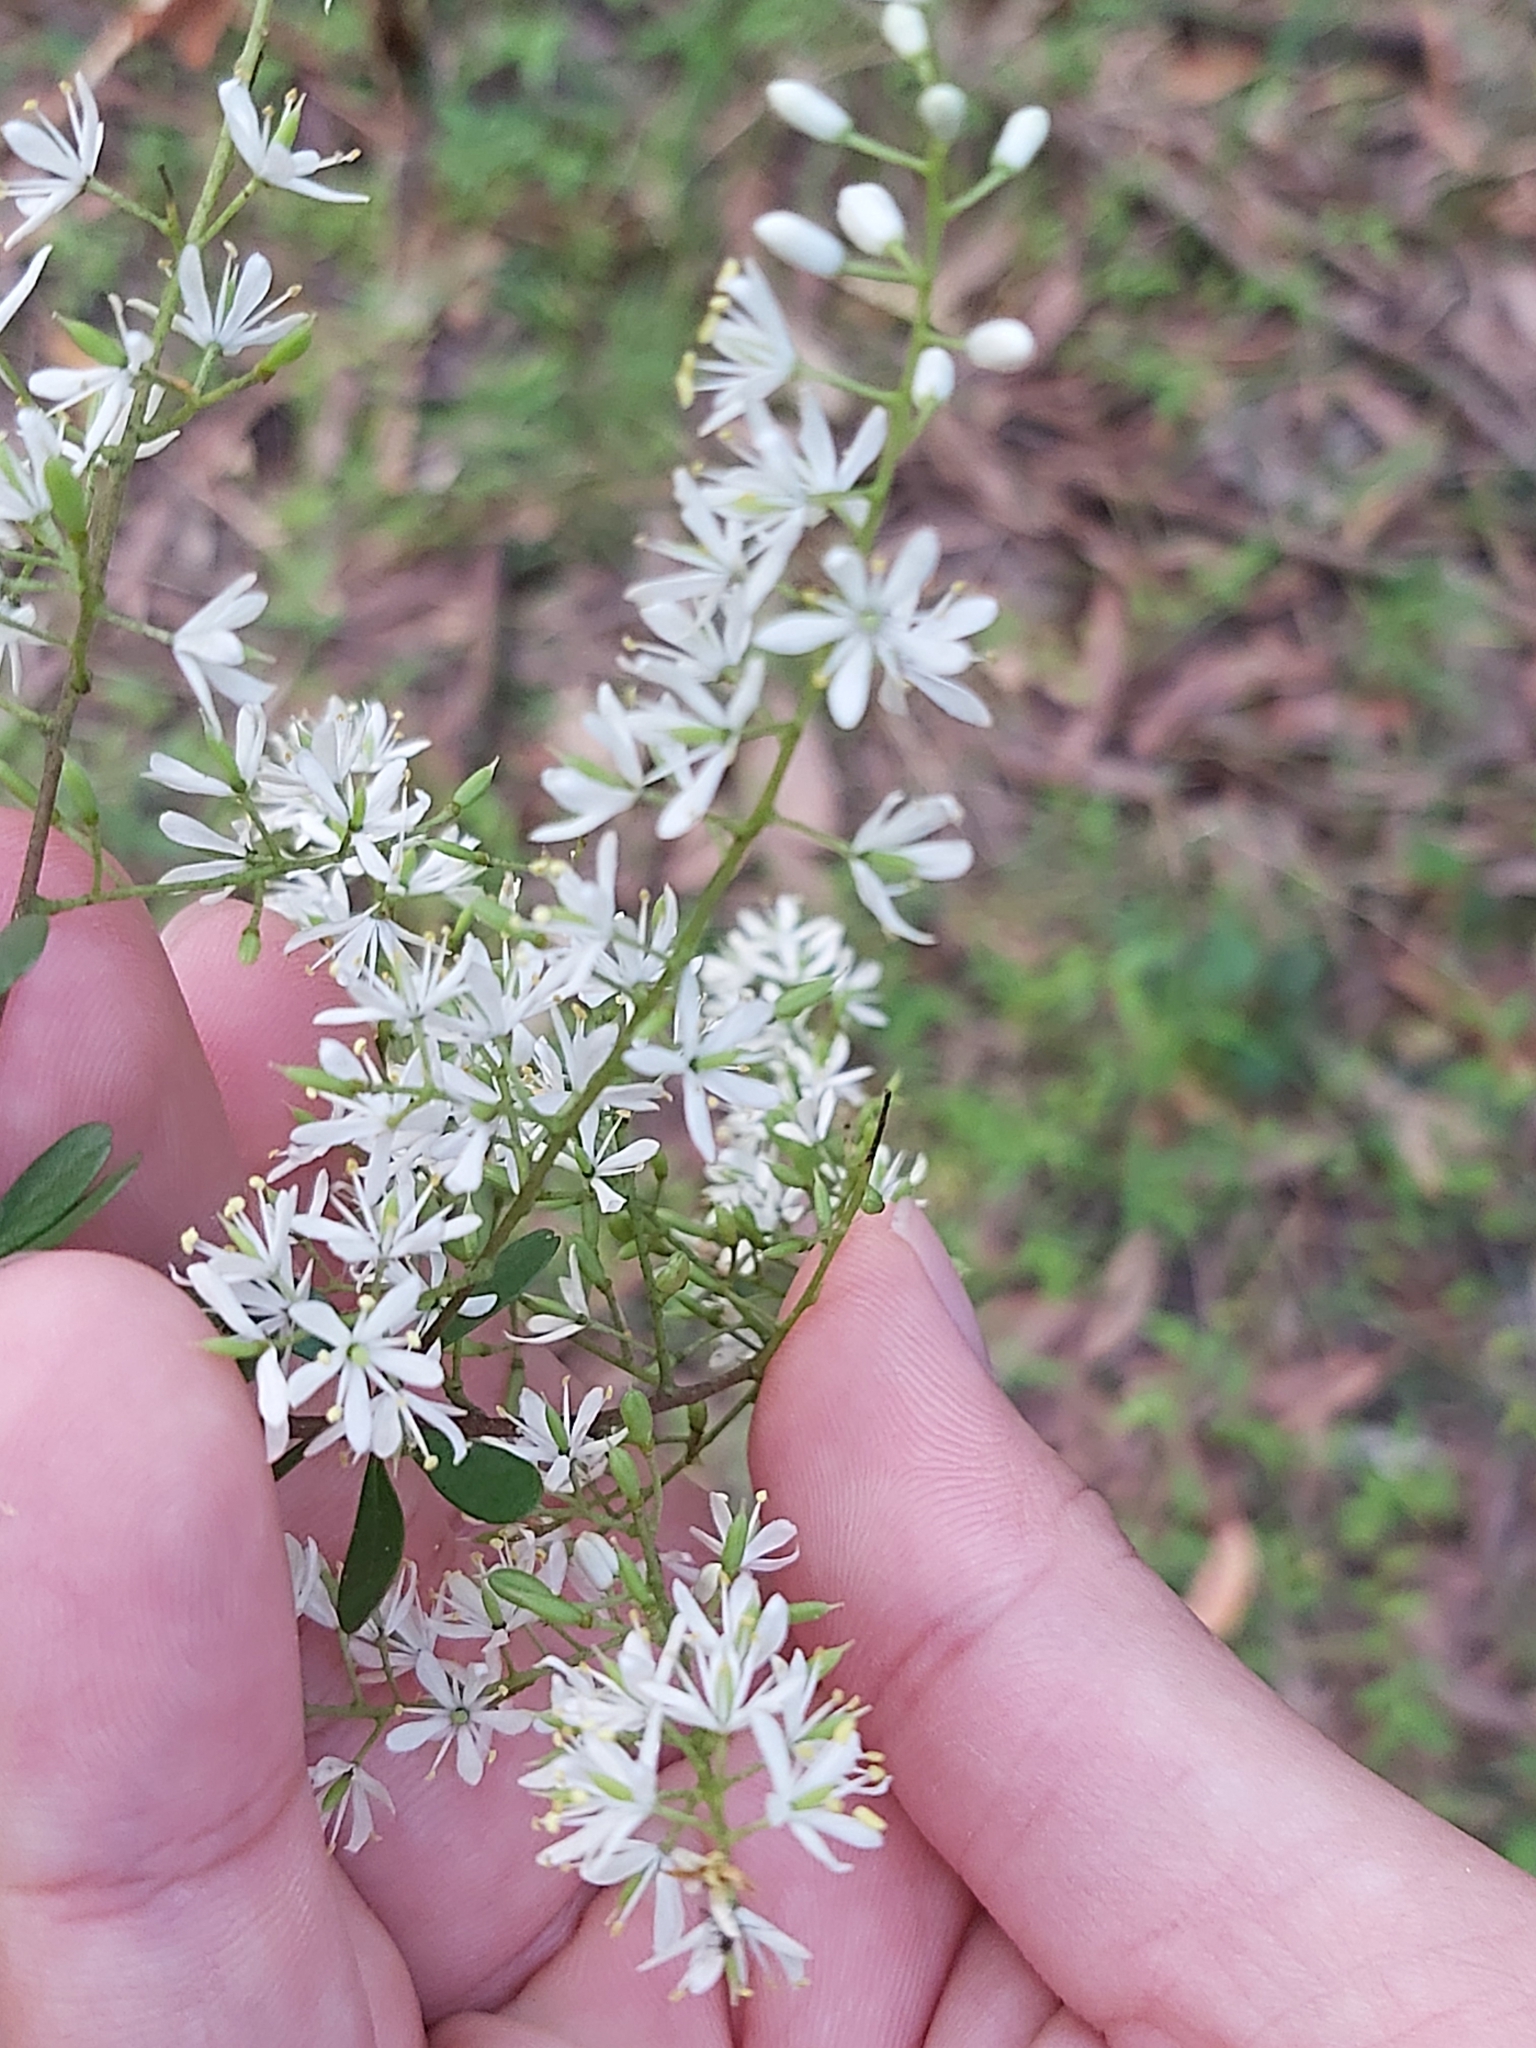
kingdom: Plantae
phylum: Tracheophyta
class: Magnoliopsida
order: Apiales
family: Pittosporaceae
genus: Bursaria
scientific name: Bursaria spinosa
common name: Australian blackthorn
